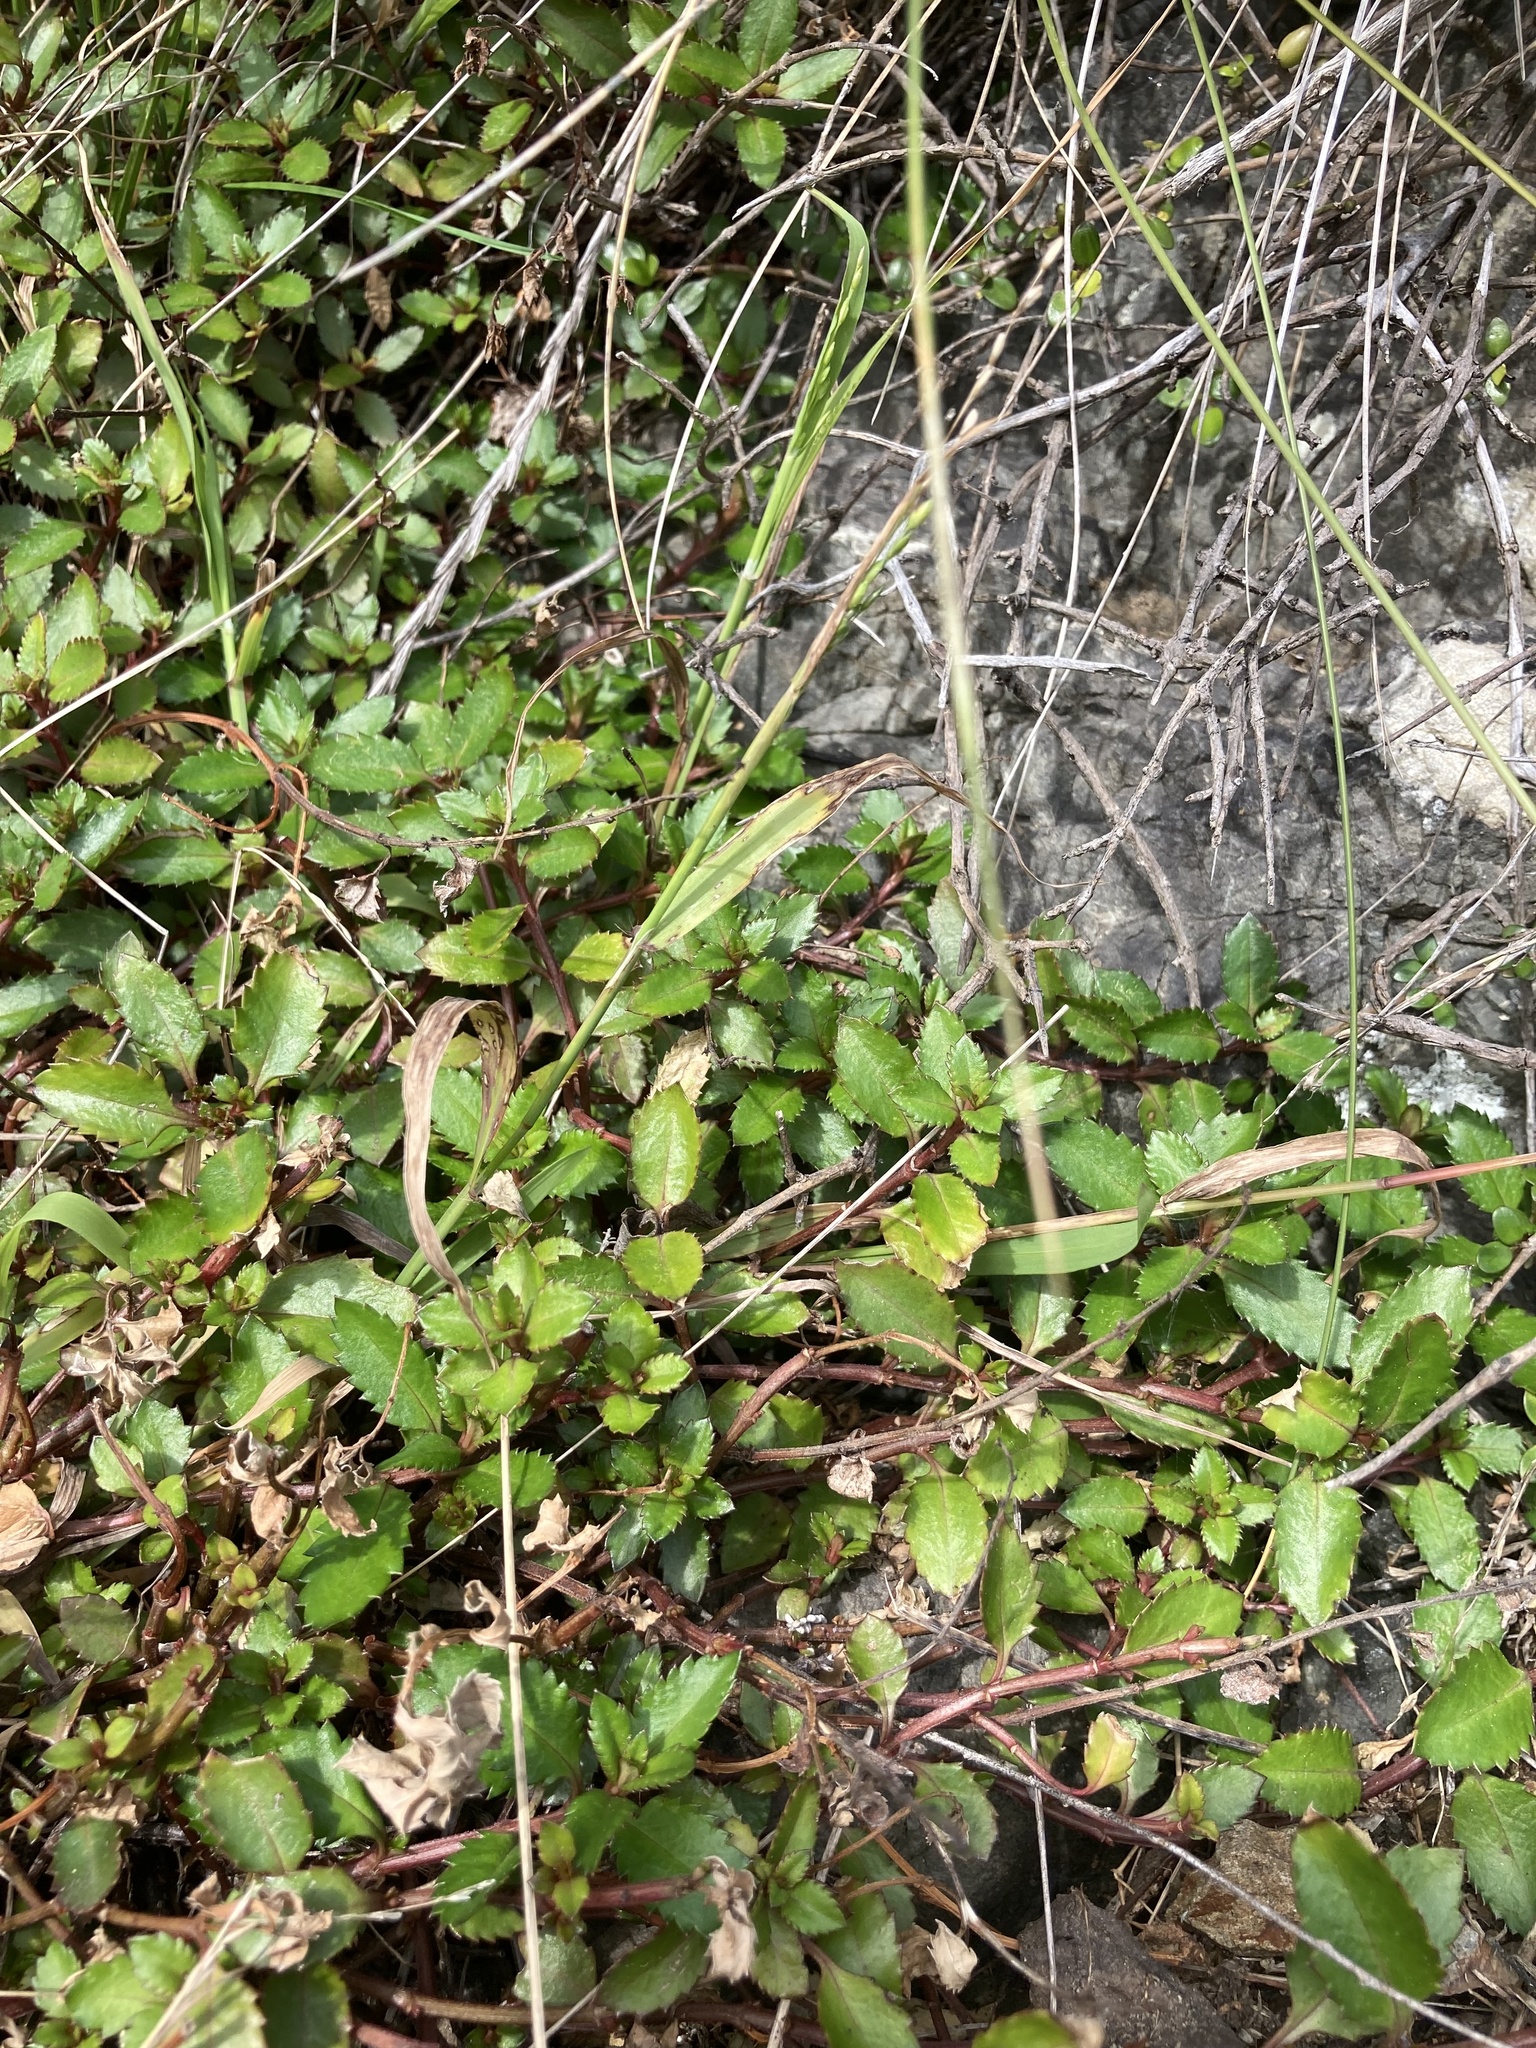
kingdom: Plantae
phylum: Tracheophyta
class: Magnoliopsida
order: Saxifragales
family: Haloragaceae
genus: Haloragis
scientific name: Haloragis erecta
